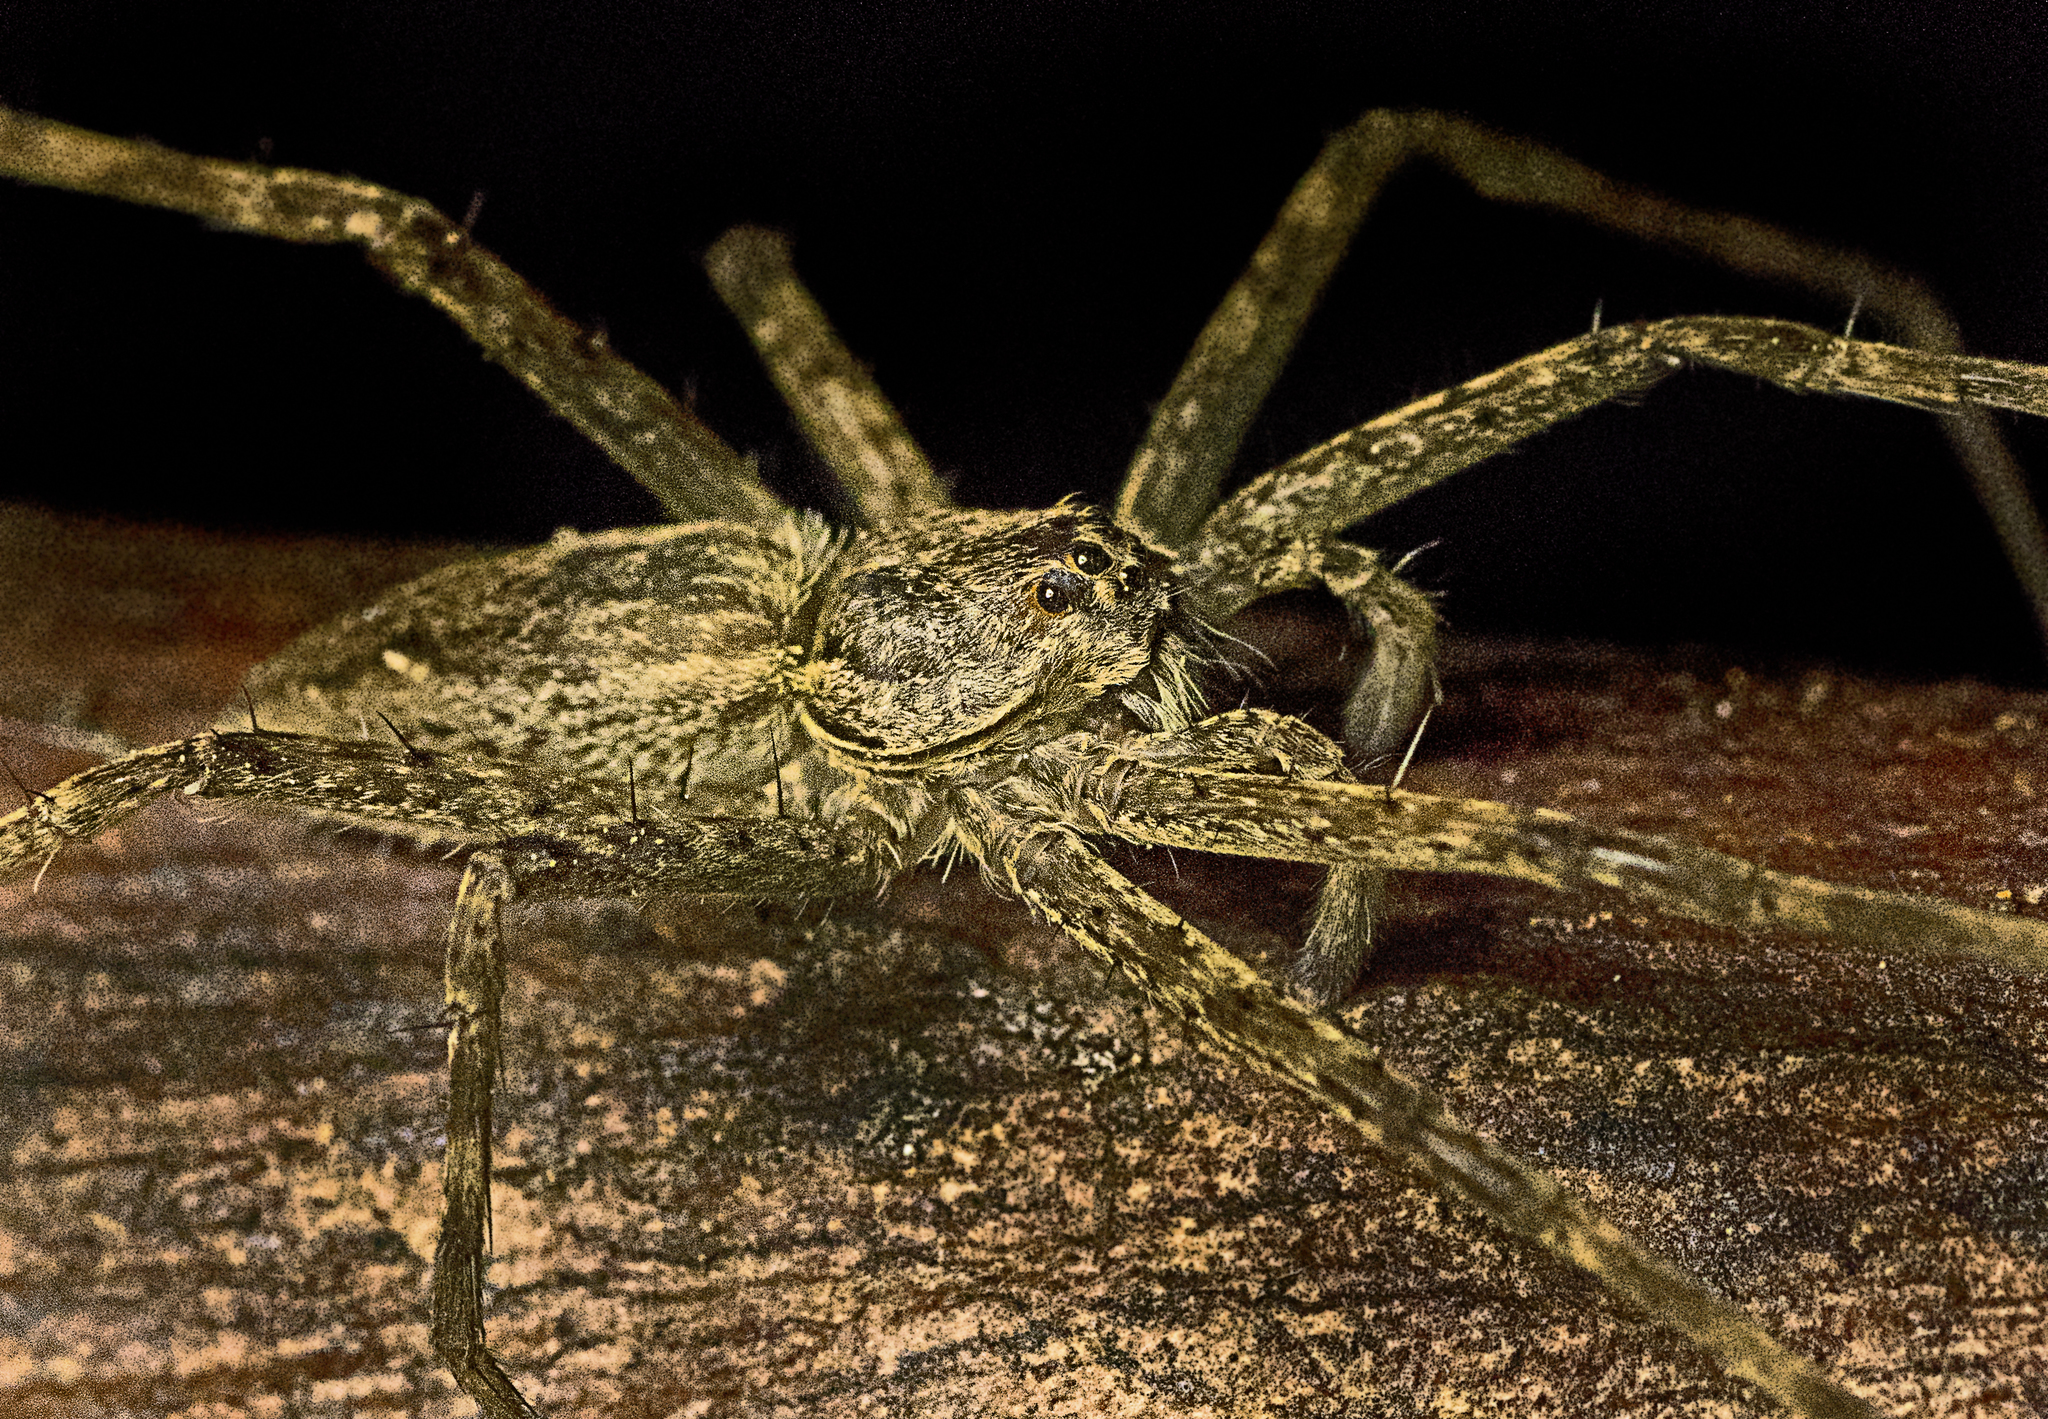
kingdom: Animalia
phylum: Arthropoda
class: Arachnida
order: Araneae
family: Pisauridae
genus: Megadolomedes
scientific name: Megadolomedes trux
